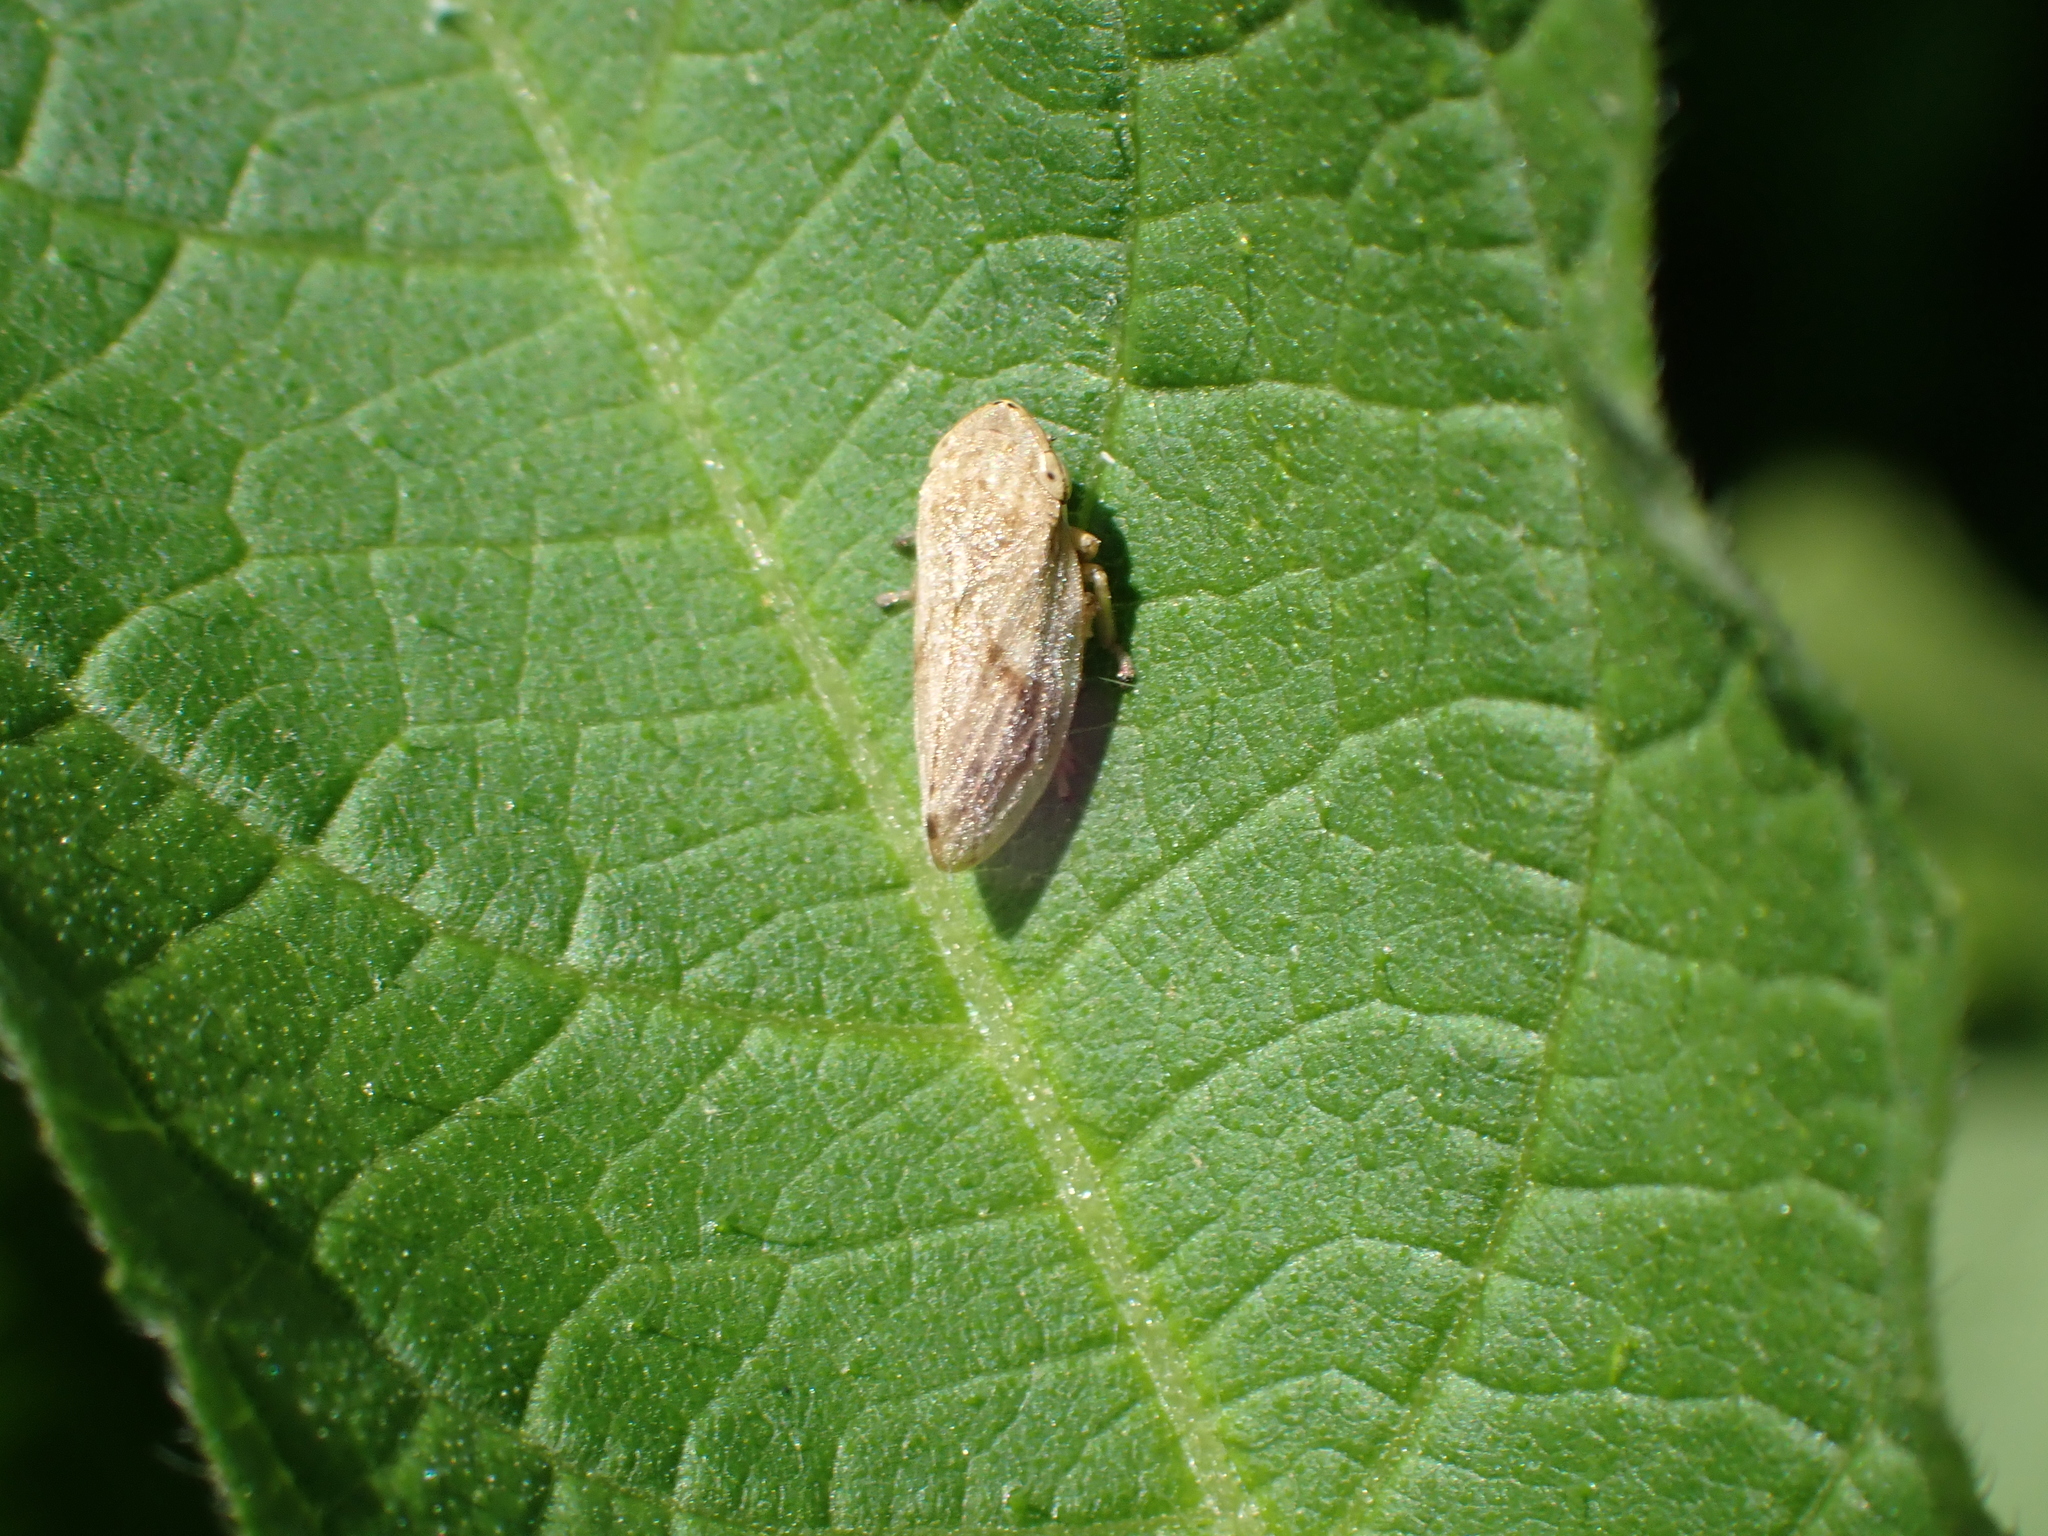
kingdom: Animalia
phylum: Arthropoda
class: Insecta
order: Hemiptera
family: Aphrophoridae
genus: Philaenus
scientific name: Philaenus spumarius
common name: Meadow spittlebug
